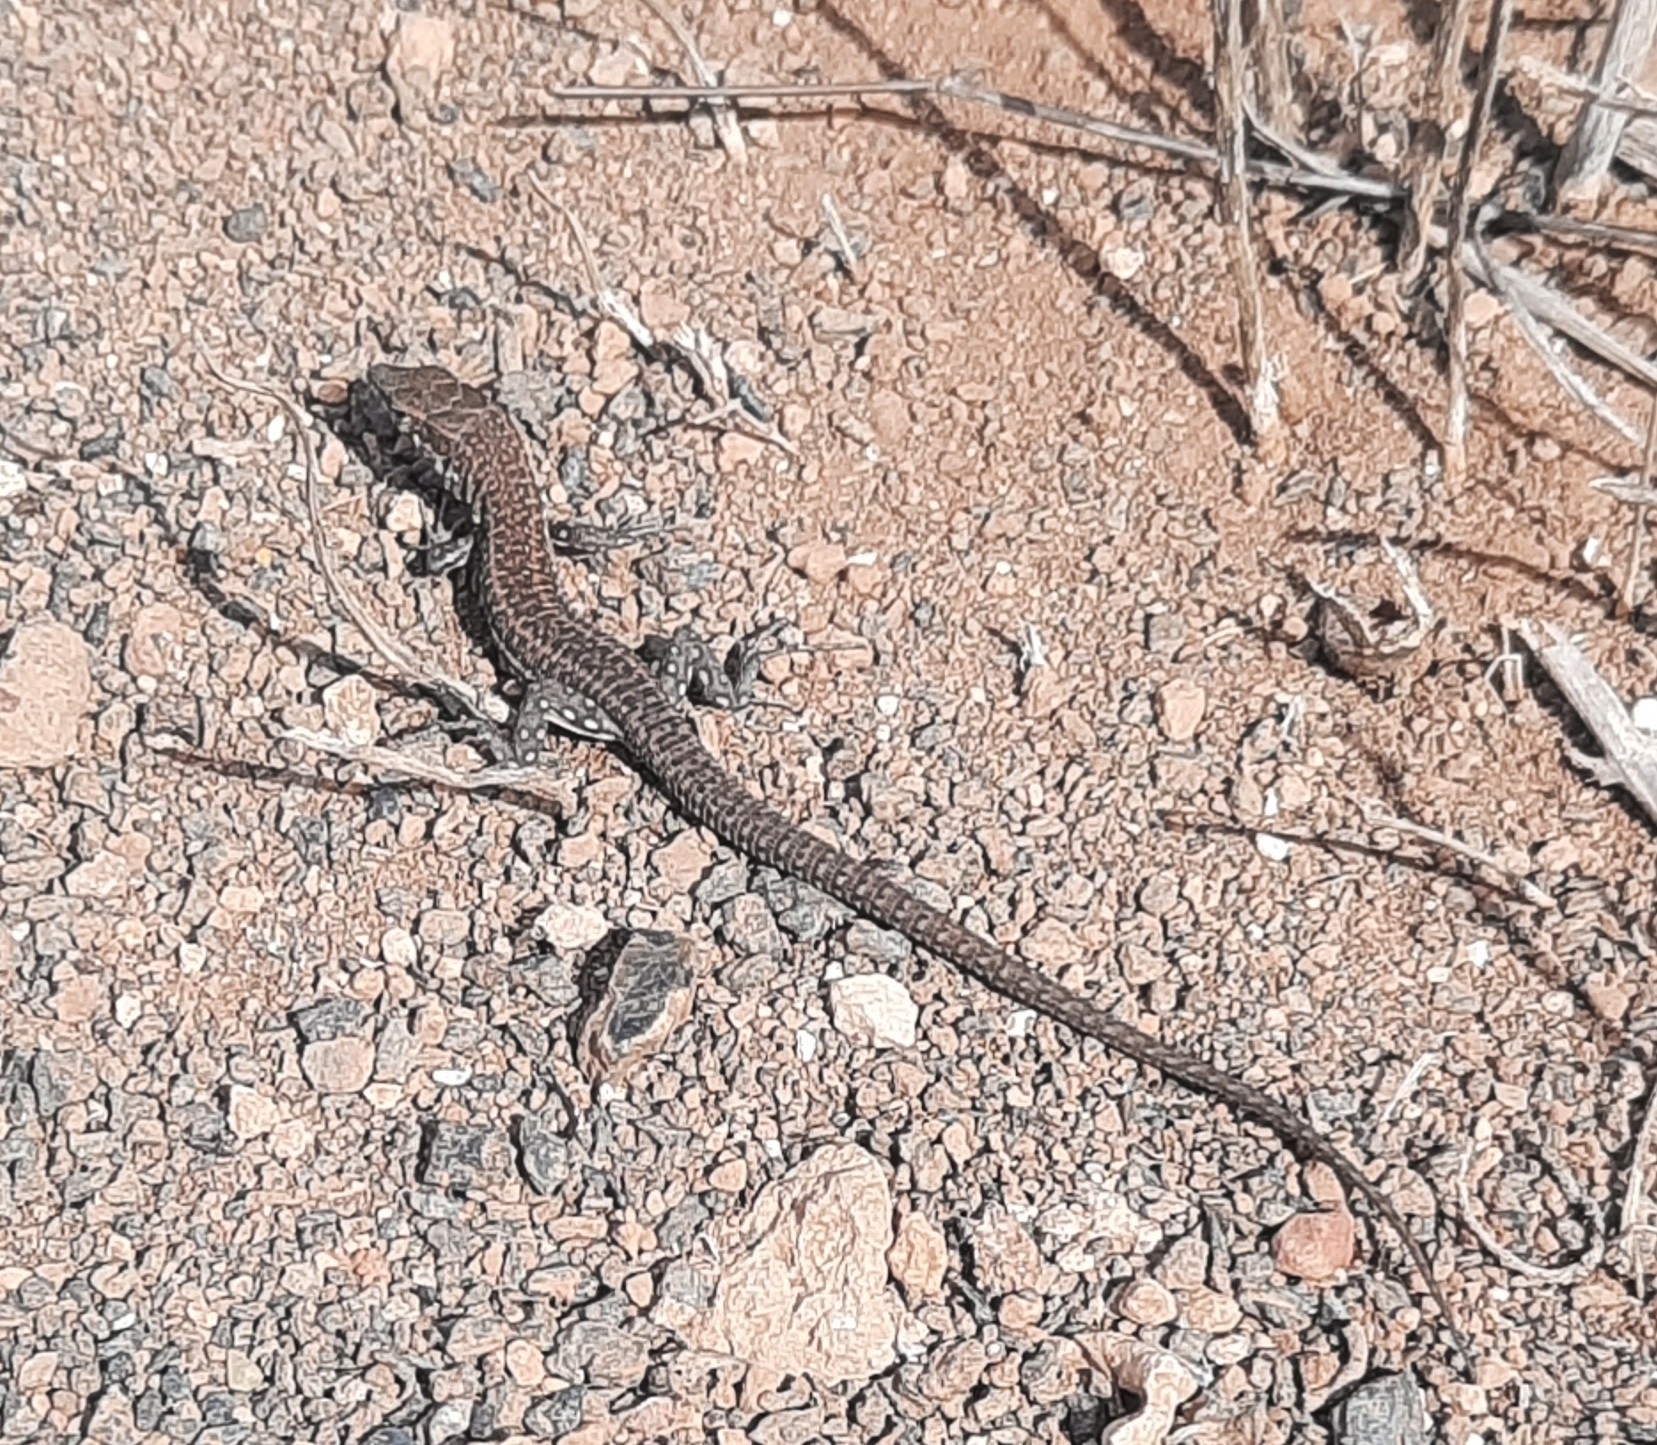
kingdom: Animalia
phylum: Chordata
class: Squamata
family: Lacertidae
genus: Gallotia
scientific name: Gallotia atlantica
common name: Atlantic lizard
